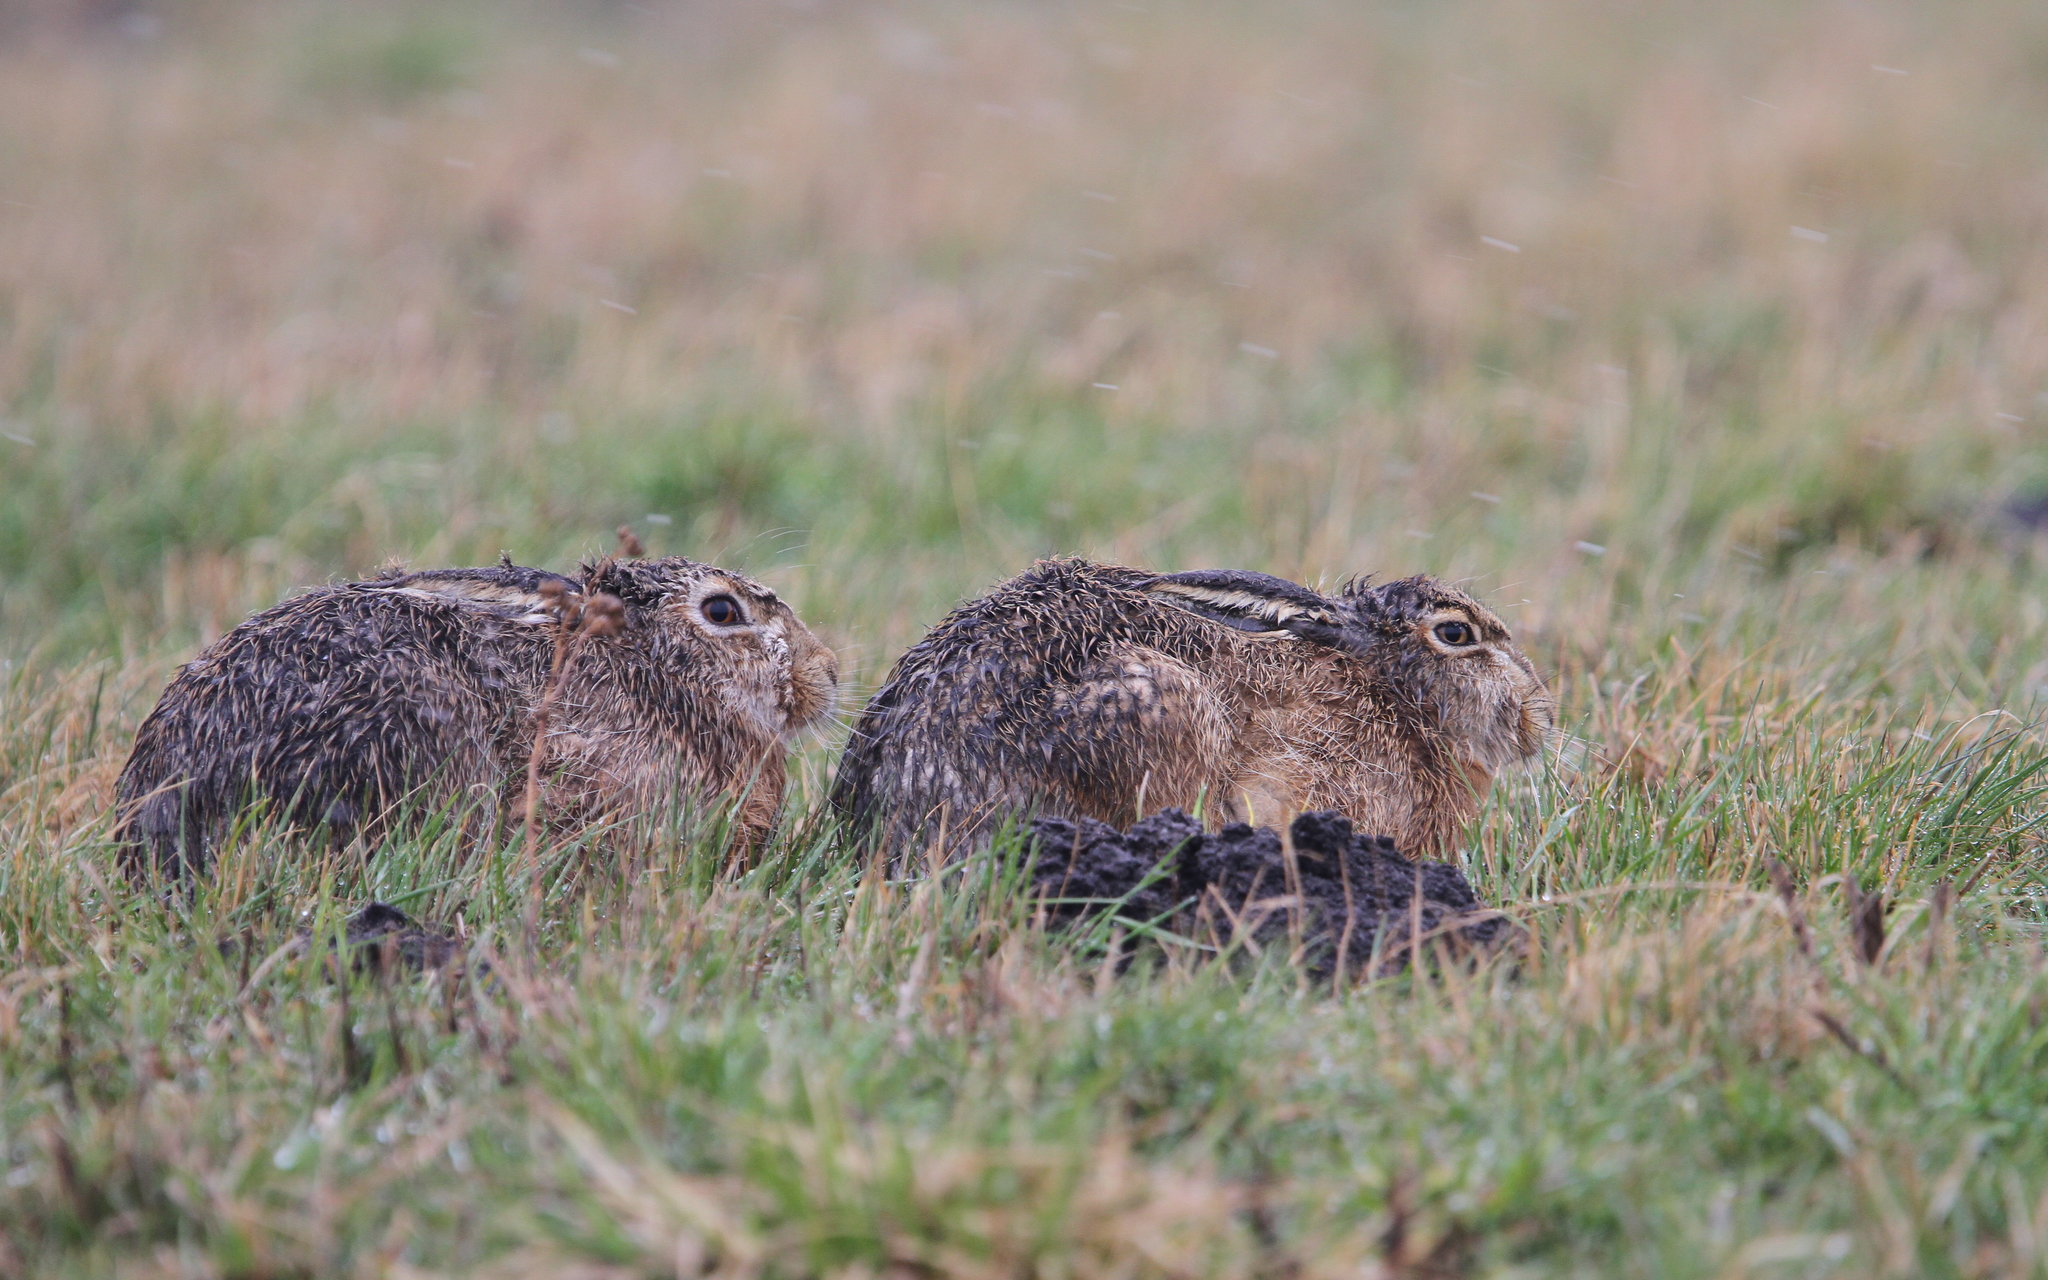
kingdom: Animalia
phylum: Chordata
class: Mammalia
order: Lagomorpha
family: Leporidae
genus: Lepus
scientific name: Lepus europaeus
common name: European hare
